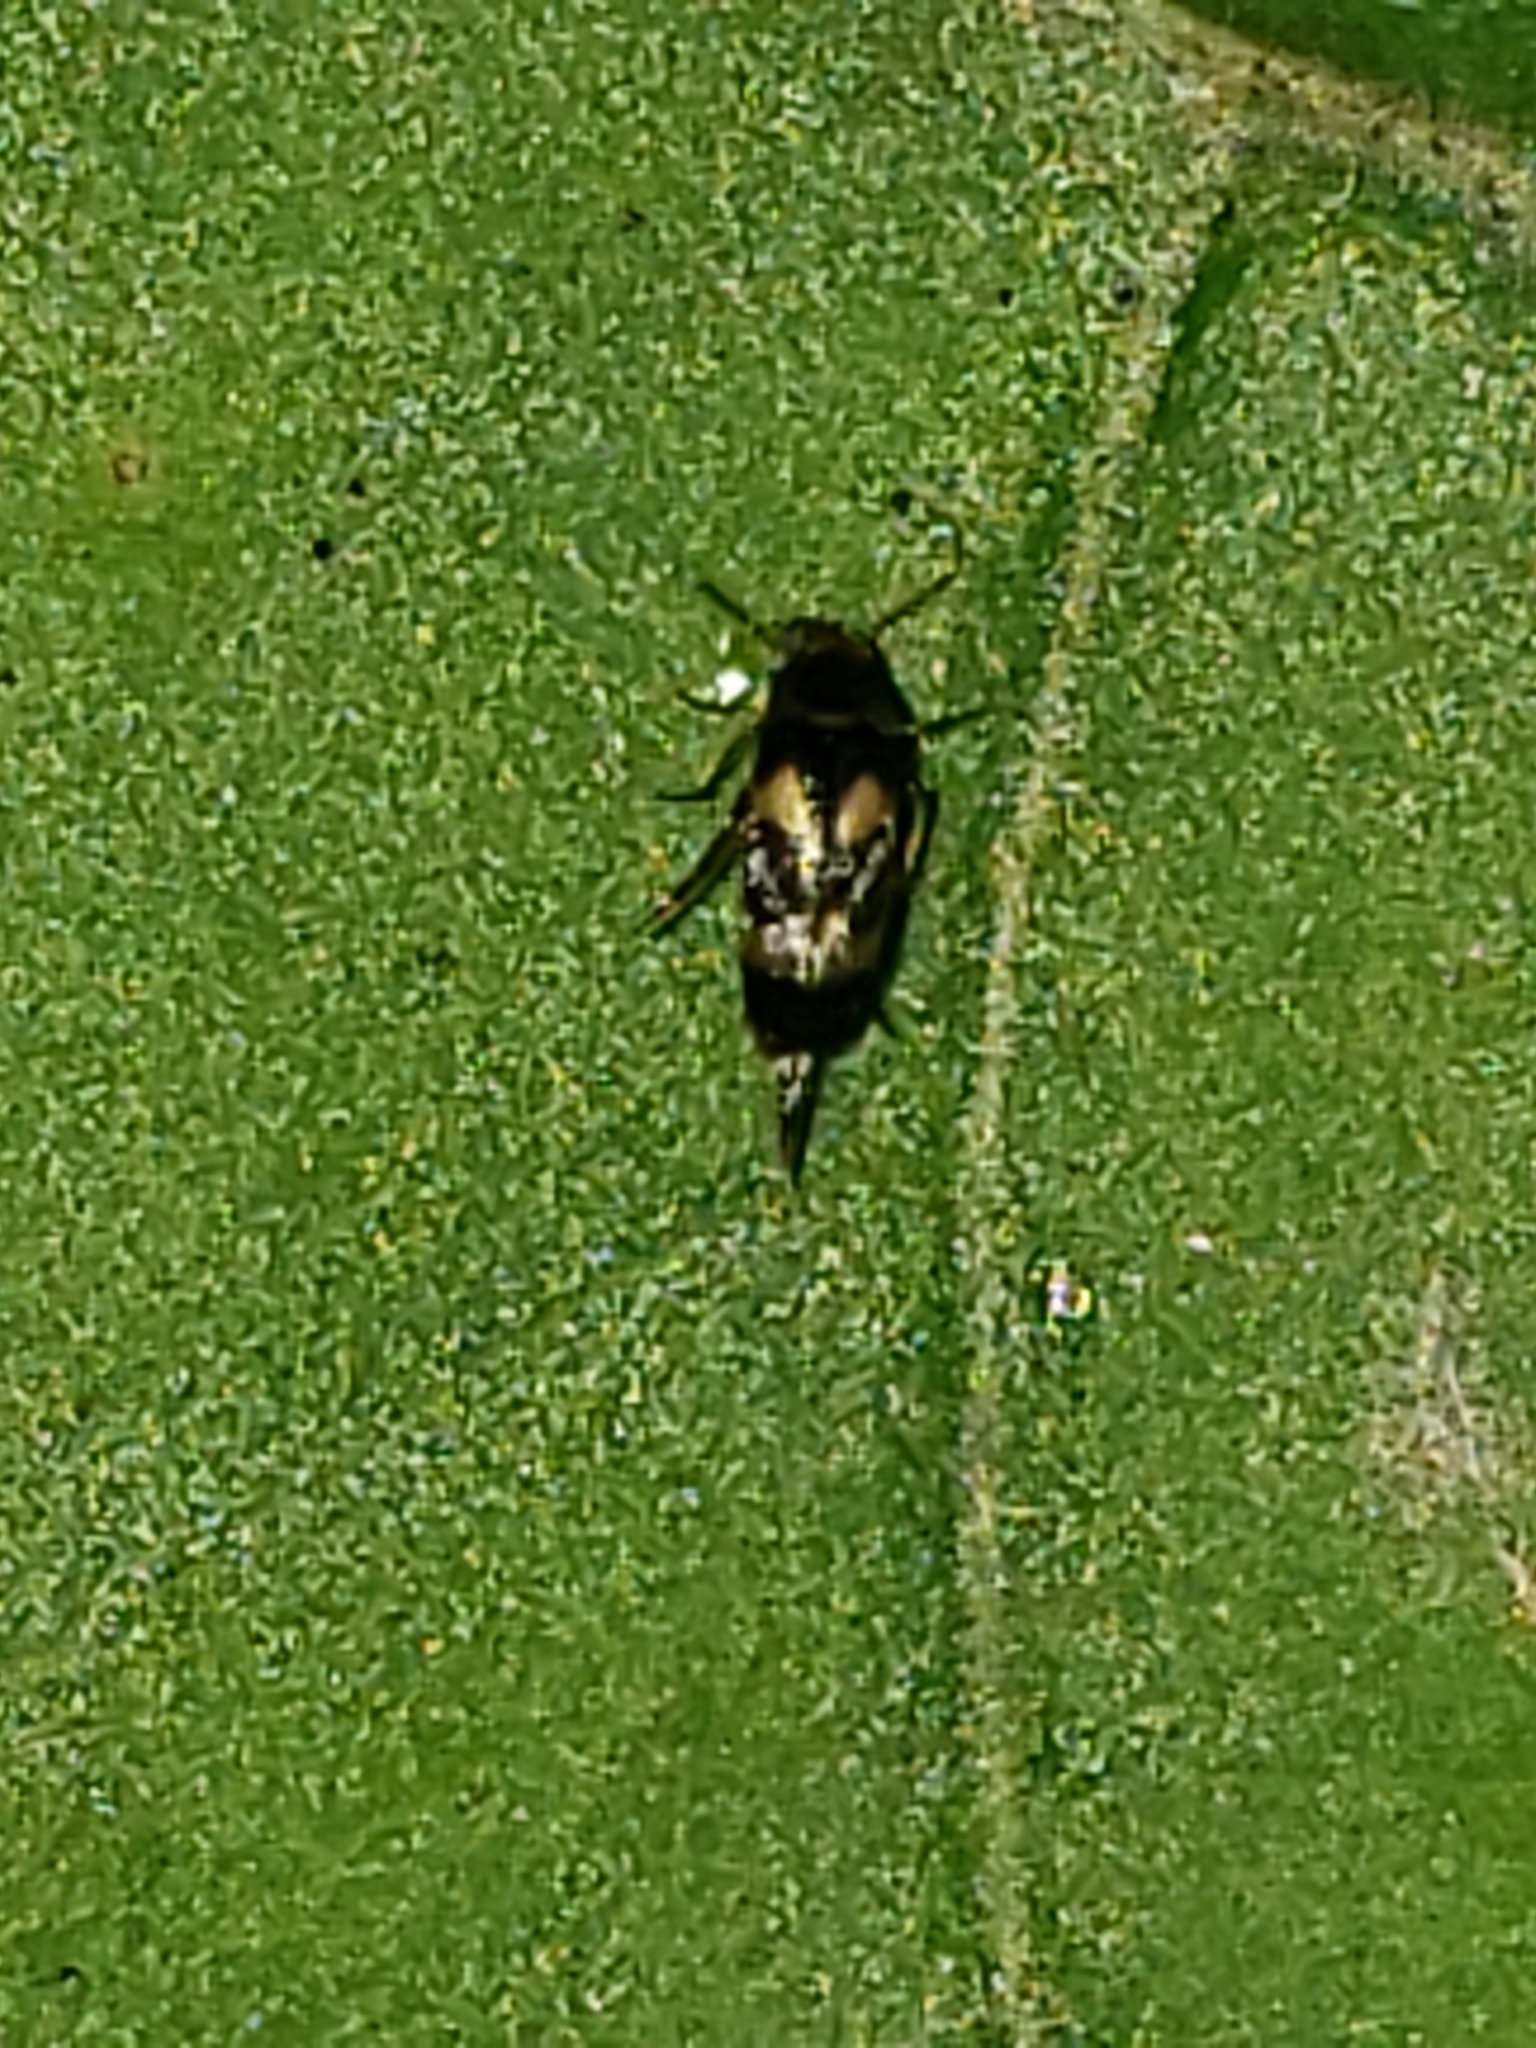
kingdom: Animalia
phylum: Arthropoda
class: Insecta
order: Coleoptera
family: Mordellidae
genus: Mordellistena
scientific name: Mordellistena trifasciata
